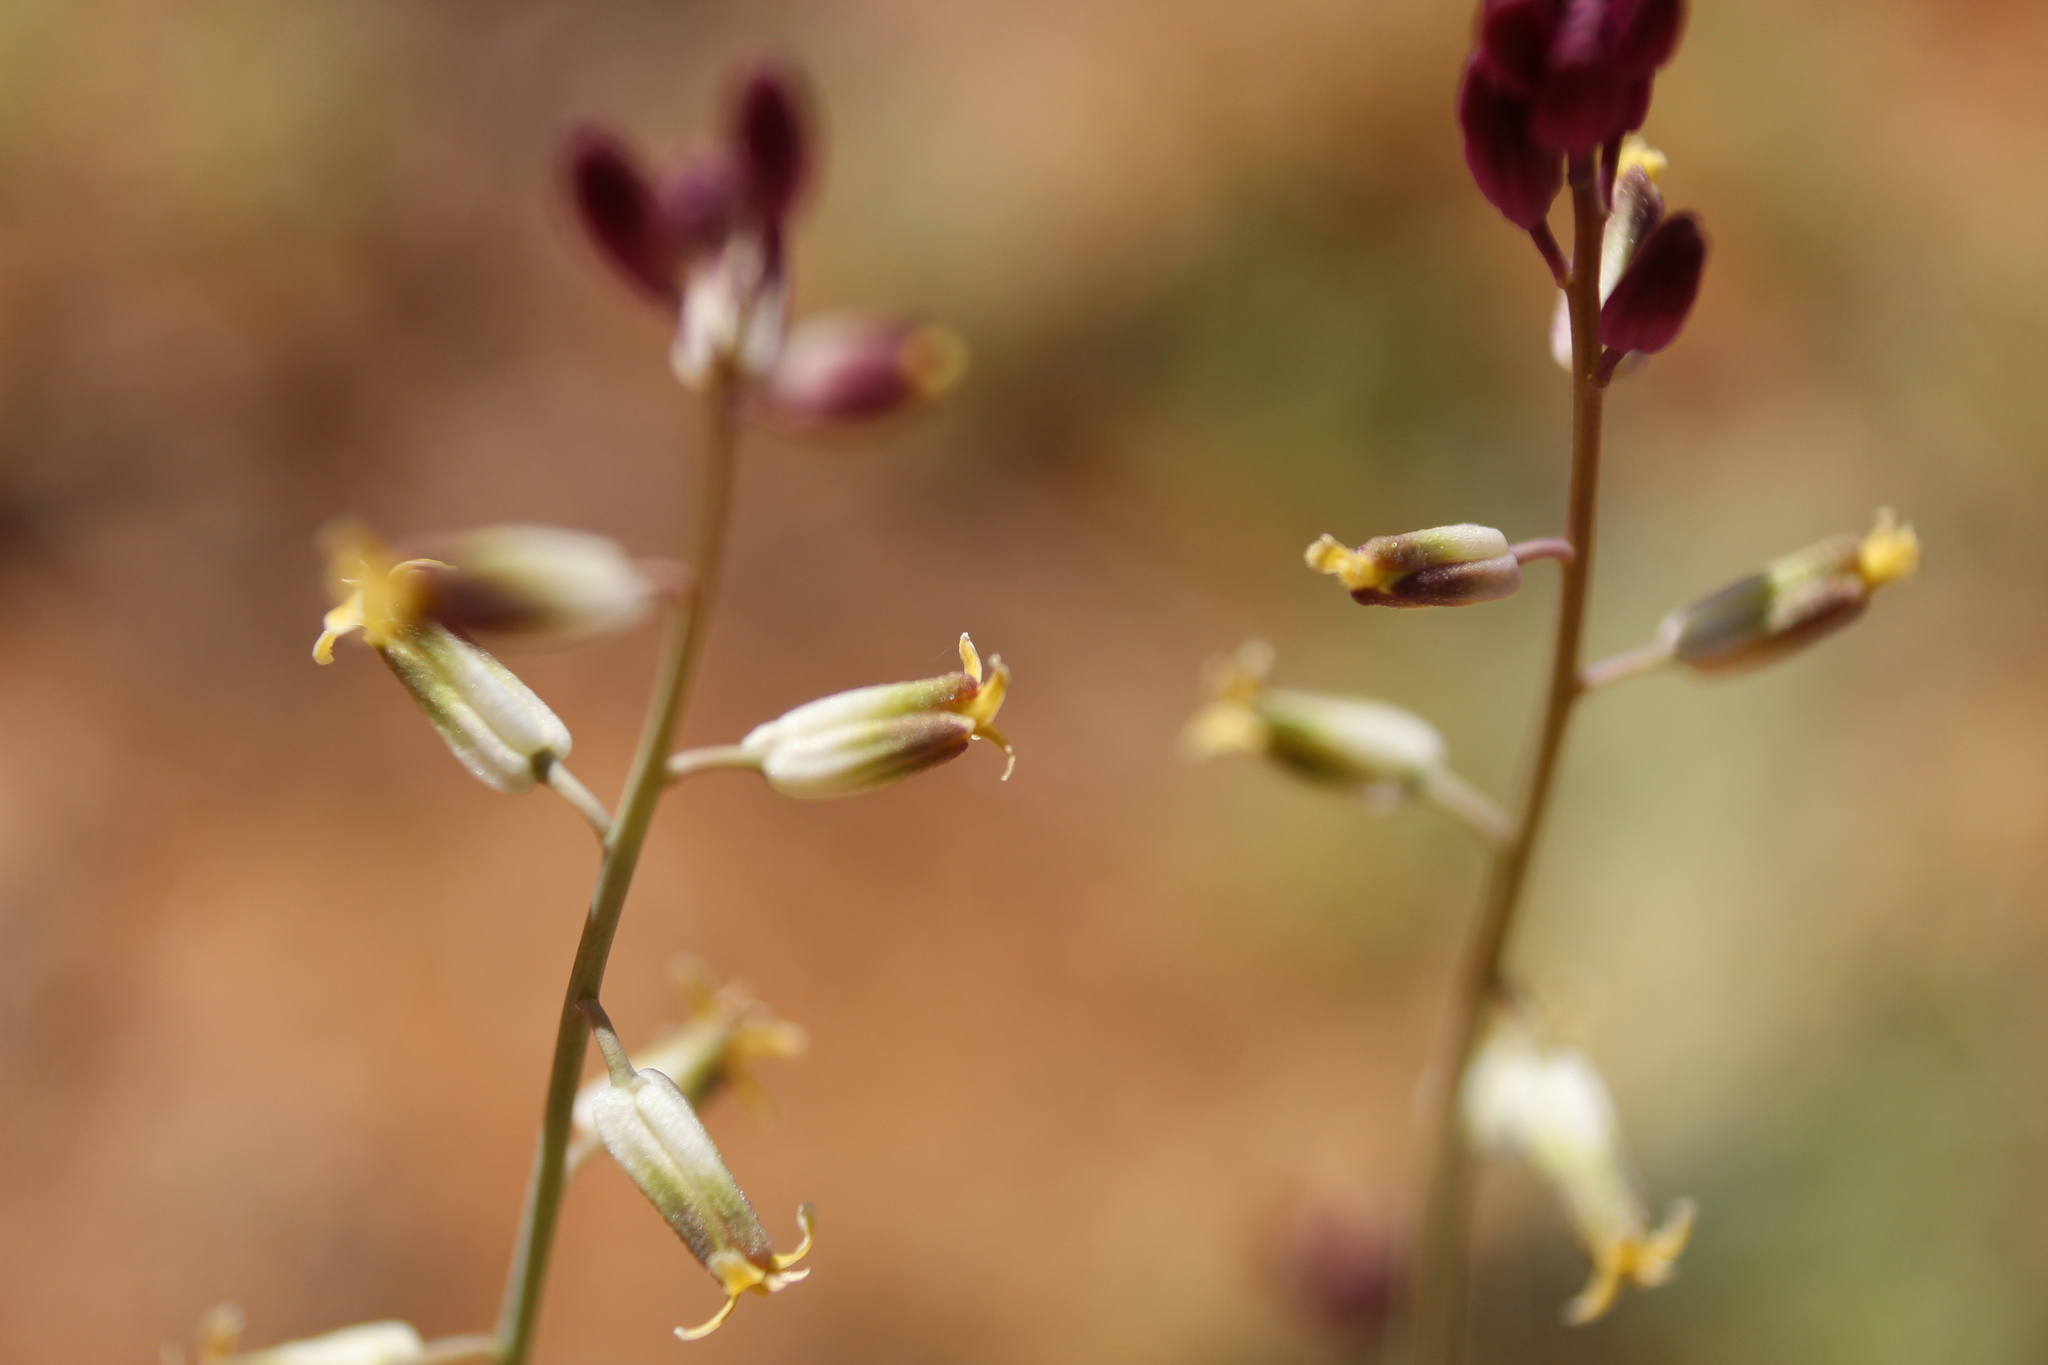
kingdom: Plantae
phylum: Tracheophyta
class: Magnoliopsida
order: Brassicales
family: Brassicaceae
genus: Streptanthus
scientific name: Streptanthus longirostris
